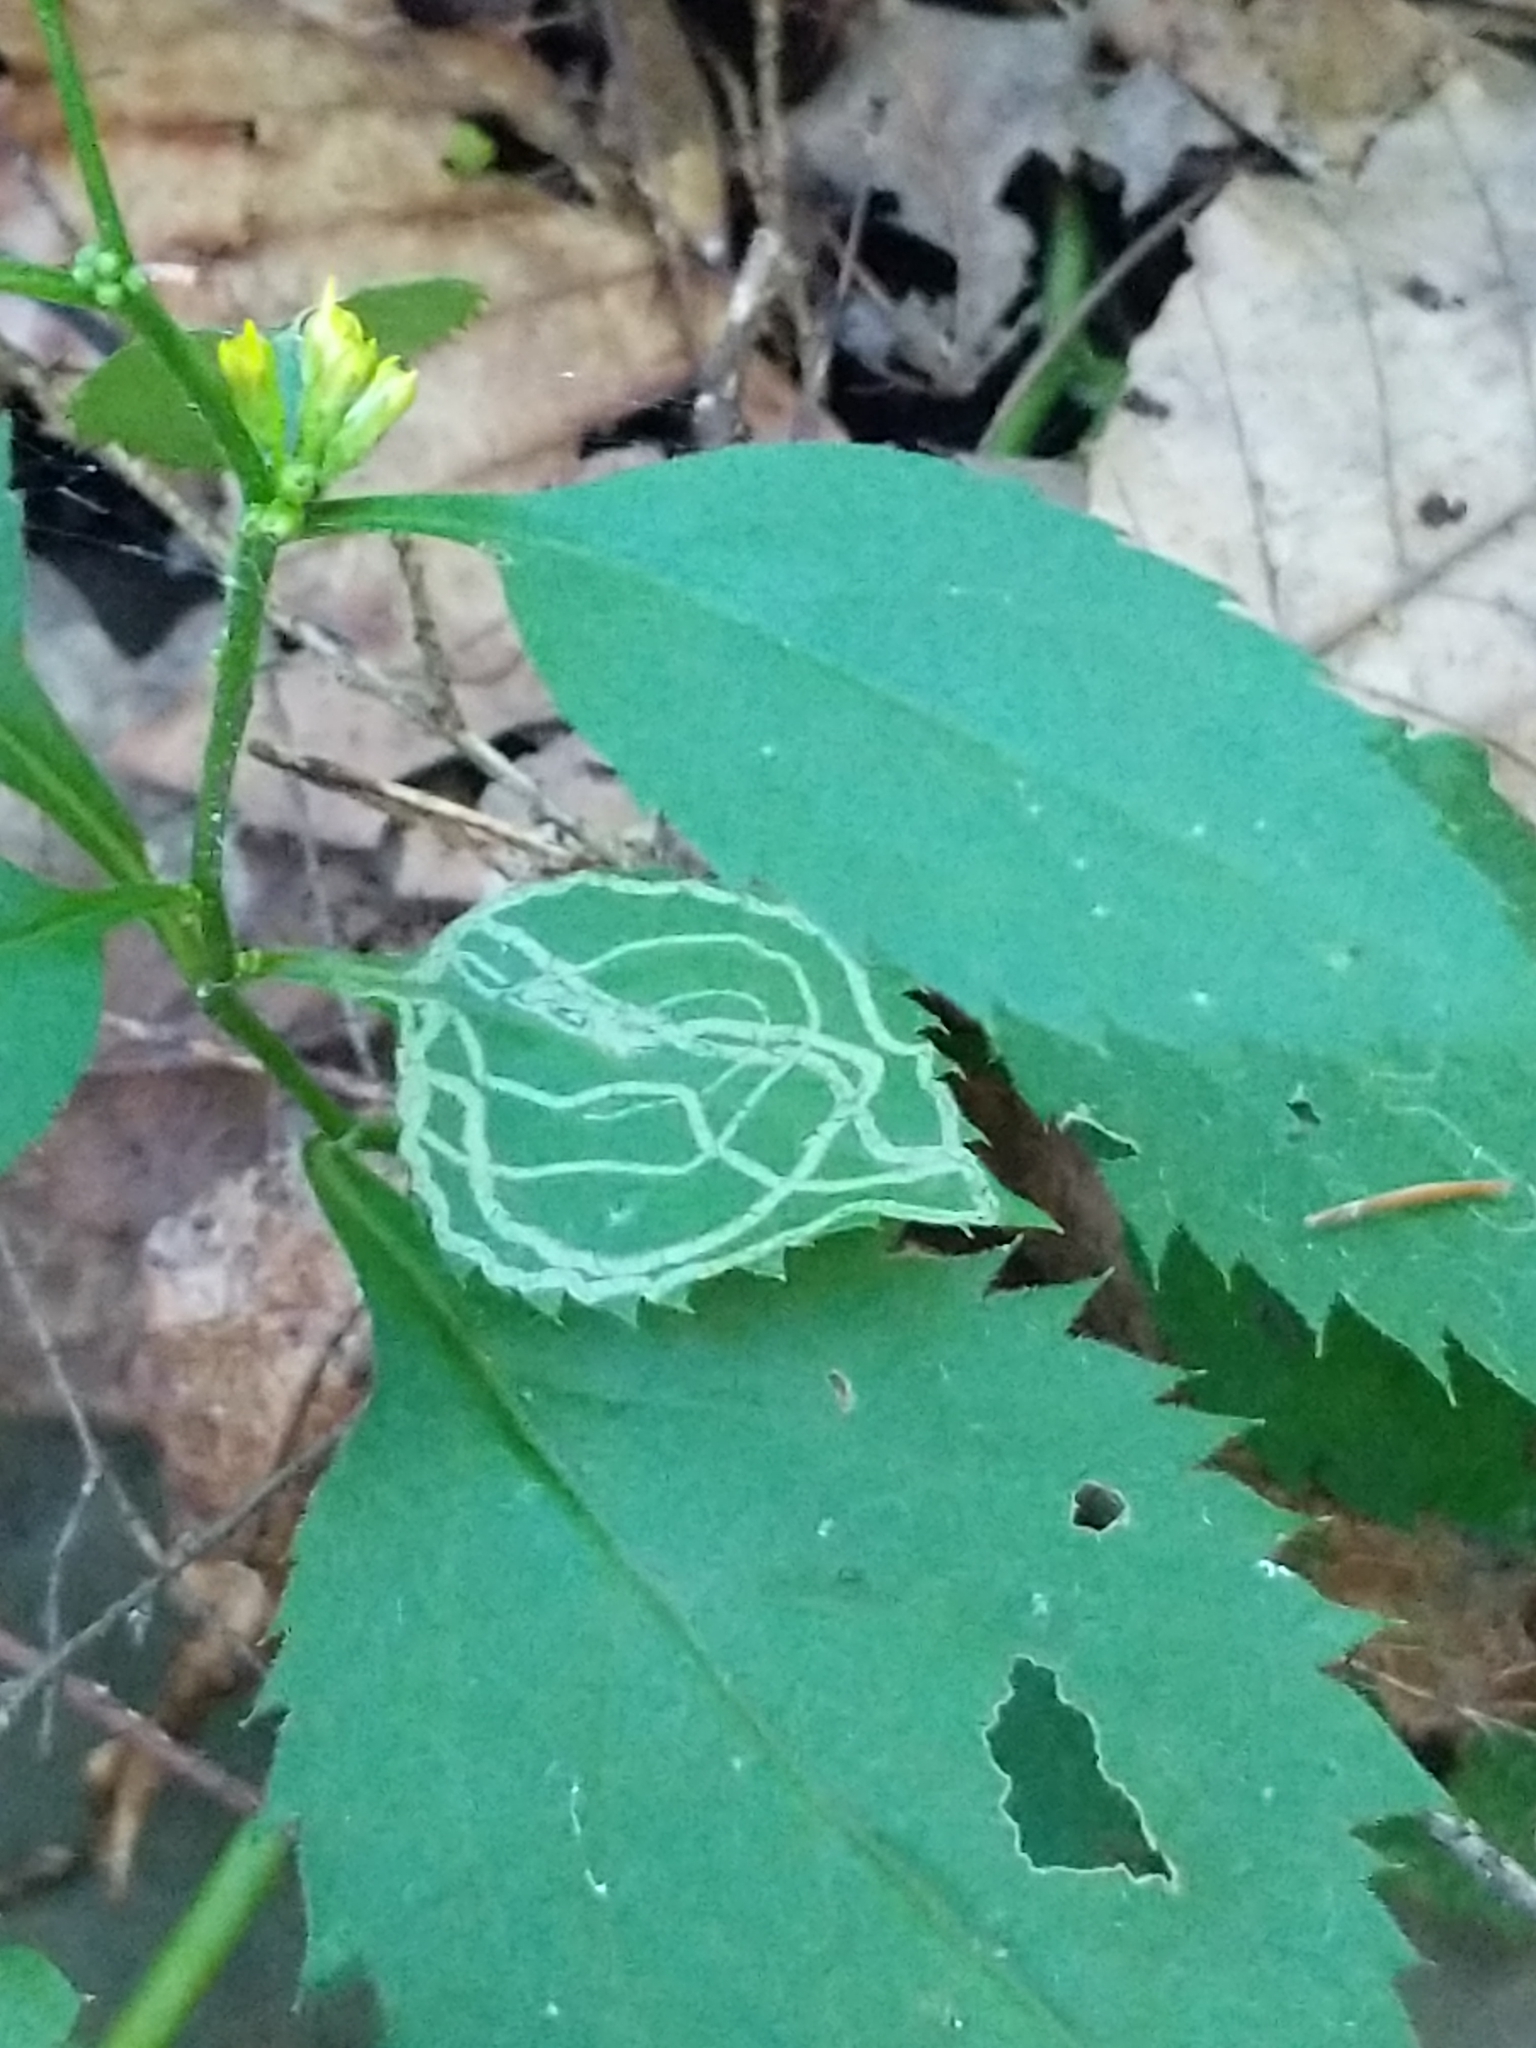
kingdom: Animalia
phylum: Arthropoda
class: Insecta
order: Diptera
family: Agromyzidae
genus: Ophiomyia
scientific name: Ophiomyia maura
